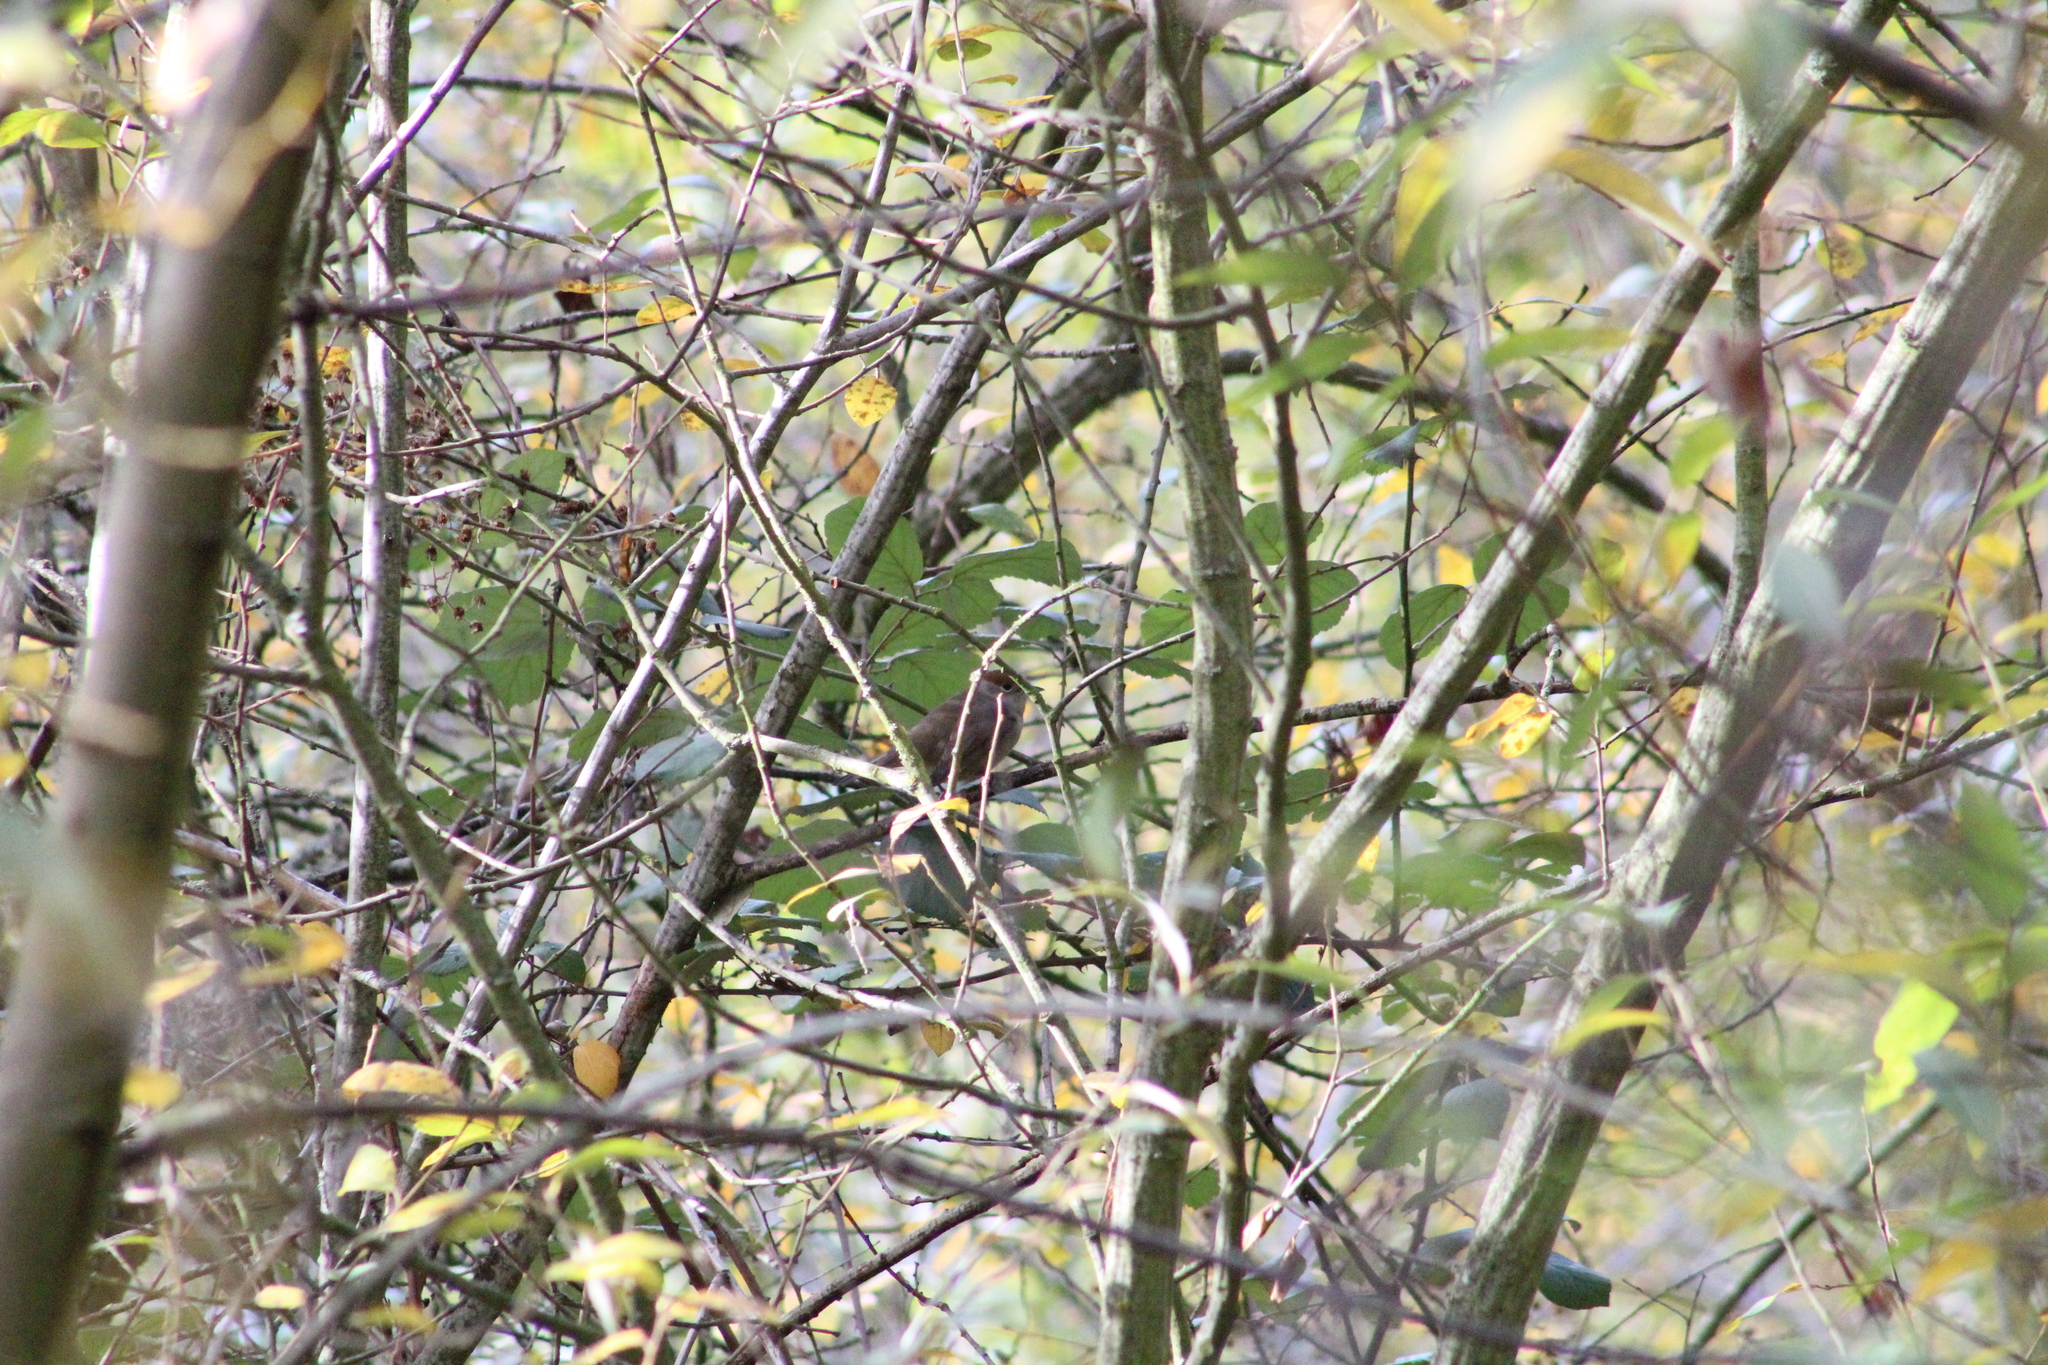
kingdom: Animalia
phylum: Chordata
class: Aves
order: Passeriformes
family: Sylviidae
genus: Sylvia
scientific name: Sylvia atricapilla
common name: Eurasian blackcap
